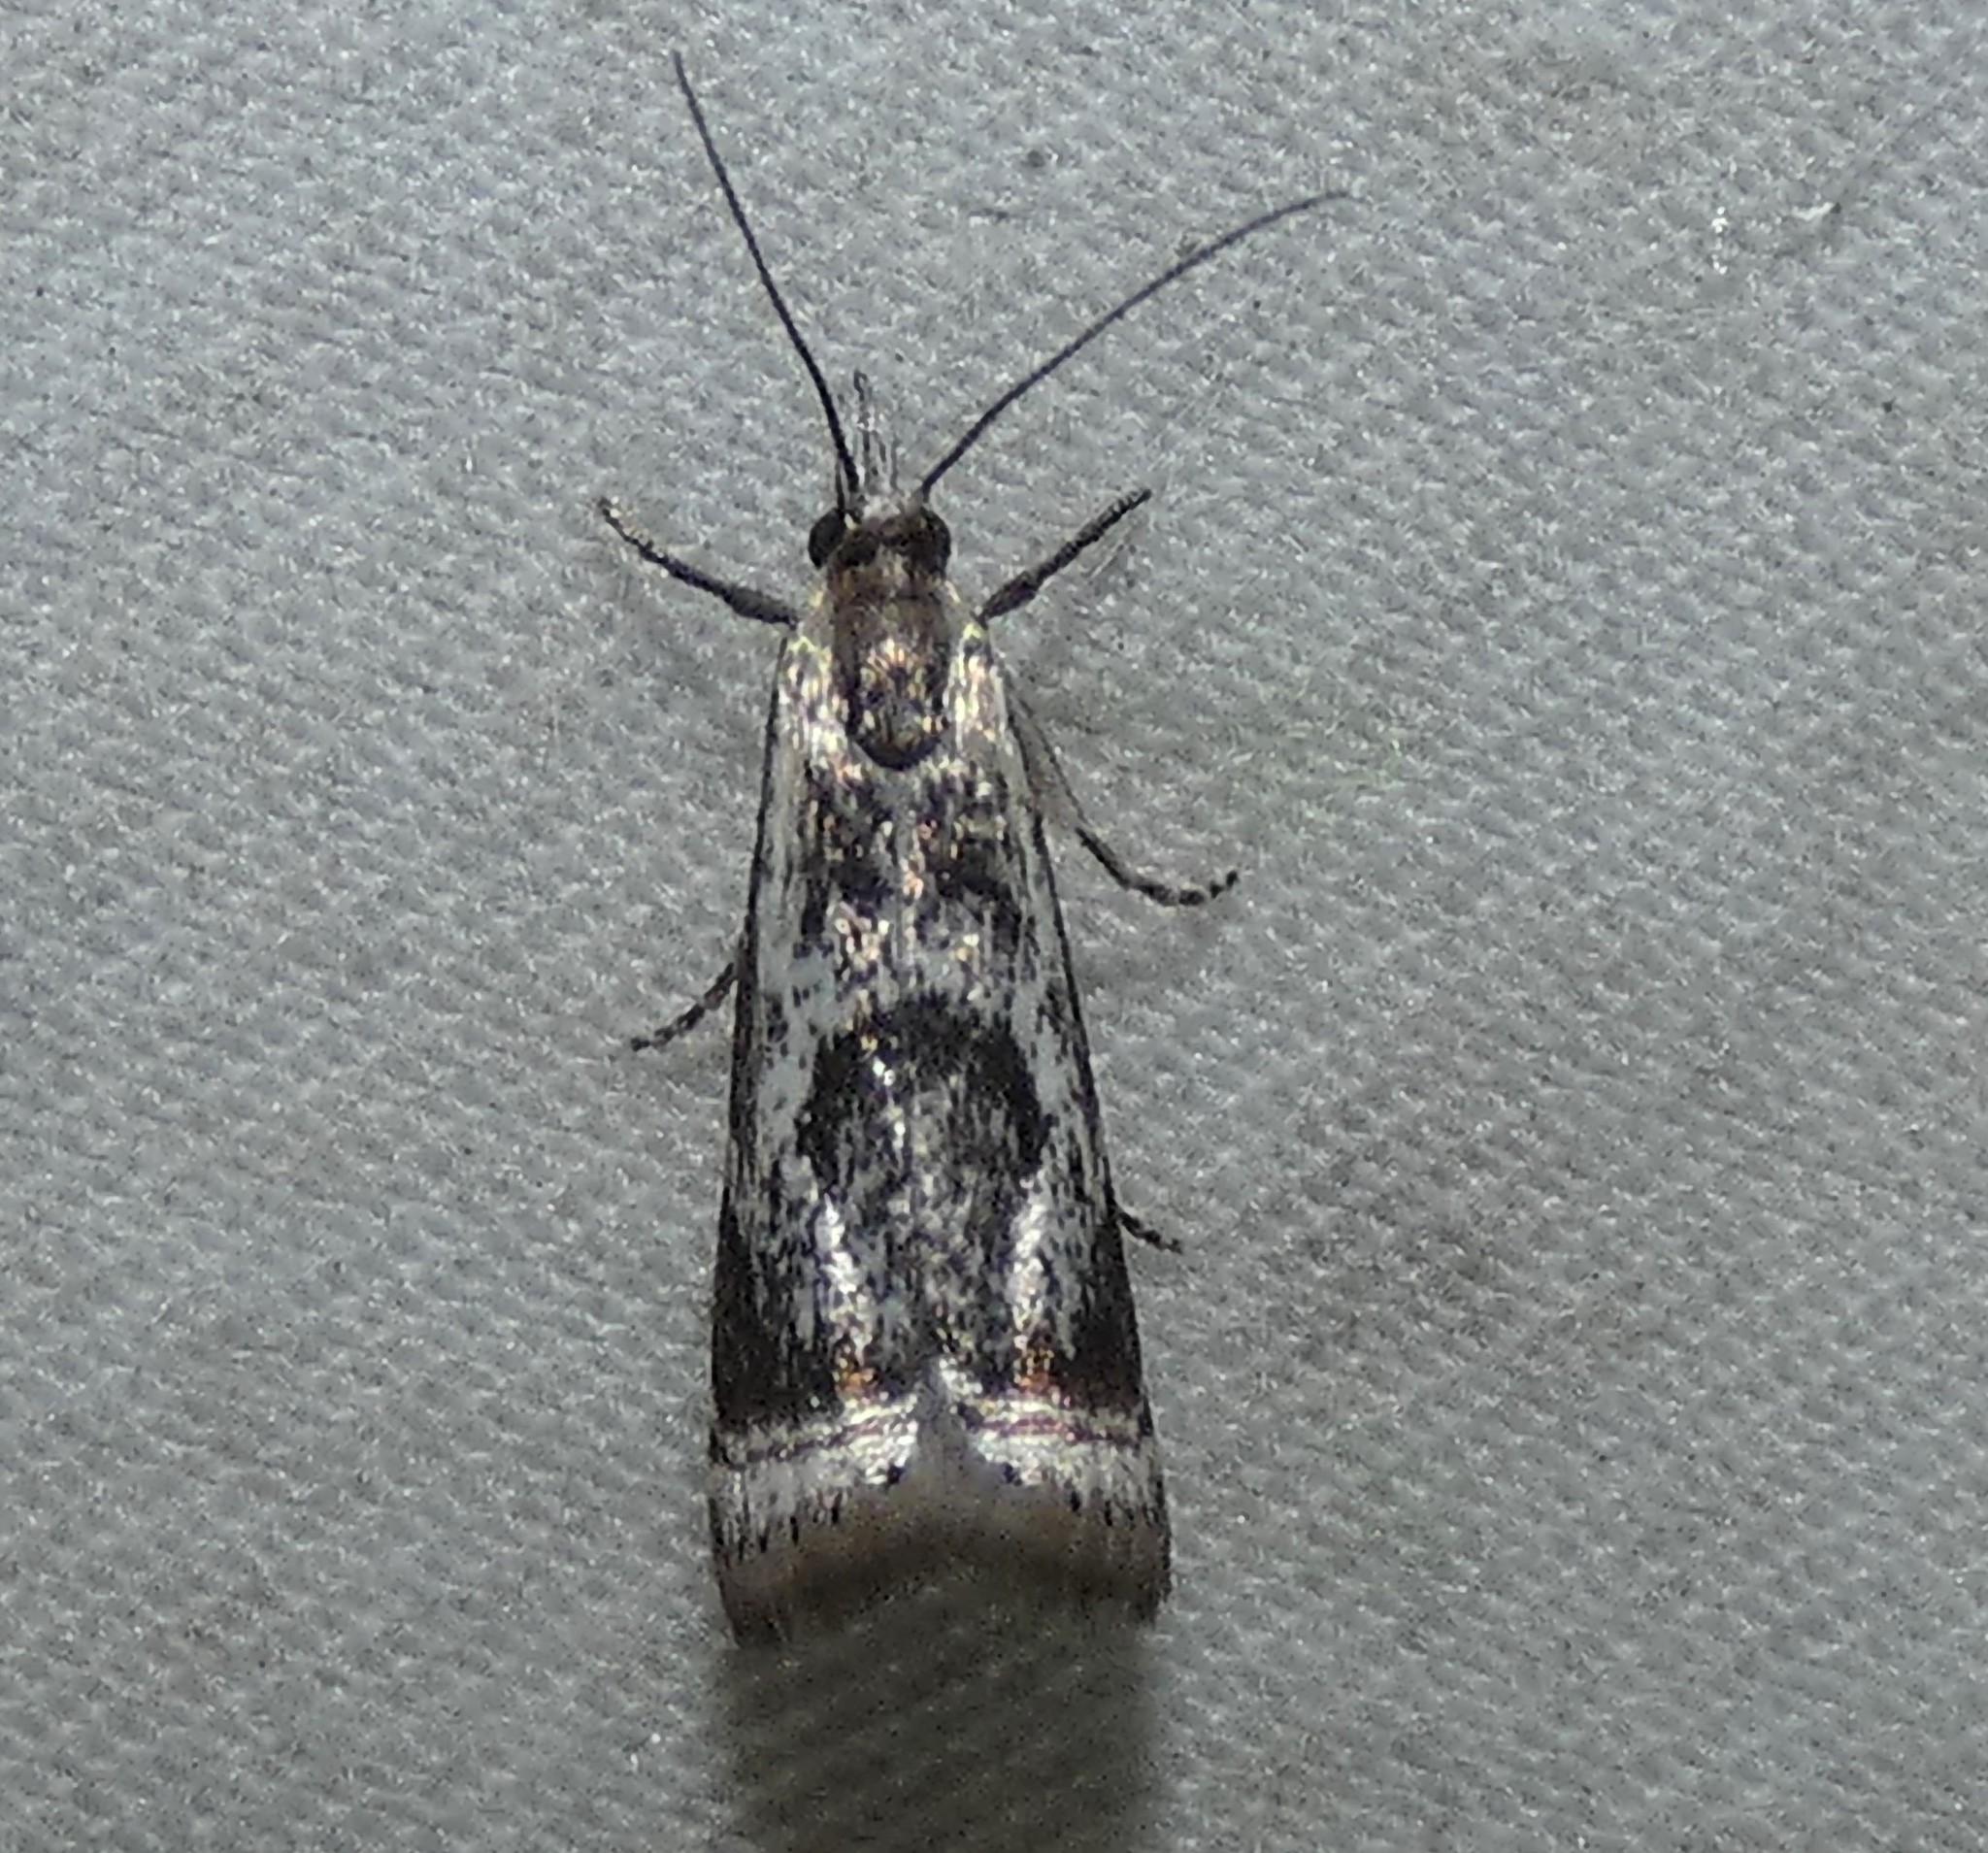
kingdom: Animalia
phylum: Arthropoda
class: Insecta
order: Lepidoptera
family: Crambidae
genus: Microcrambus
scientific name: Microcrambus elegans
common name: Elegant grass-veneer
